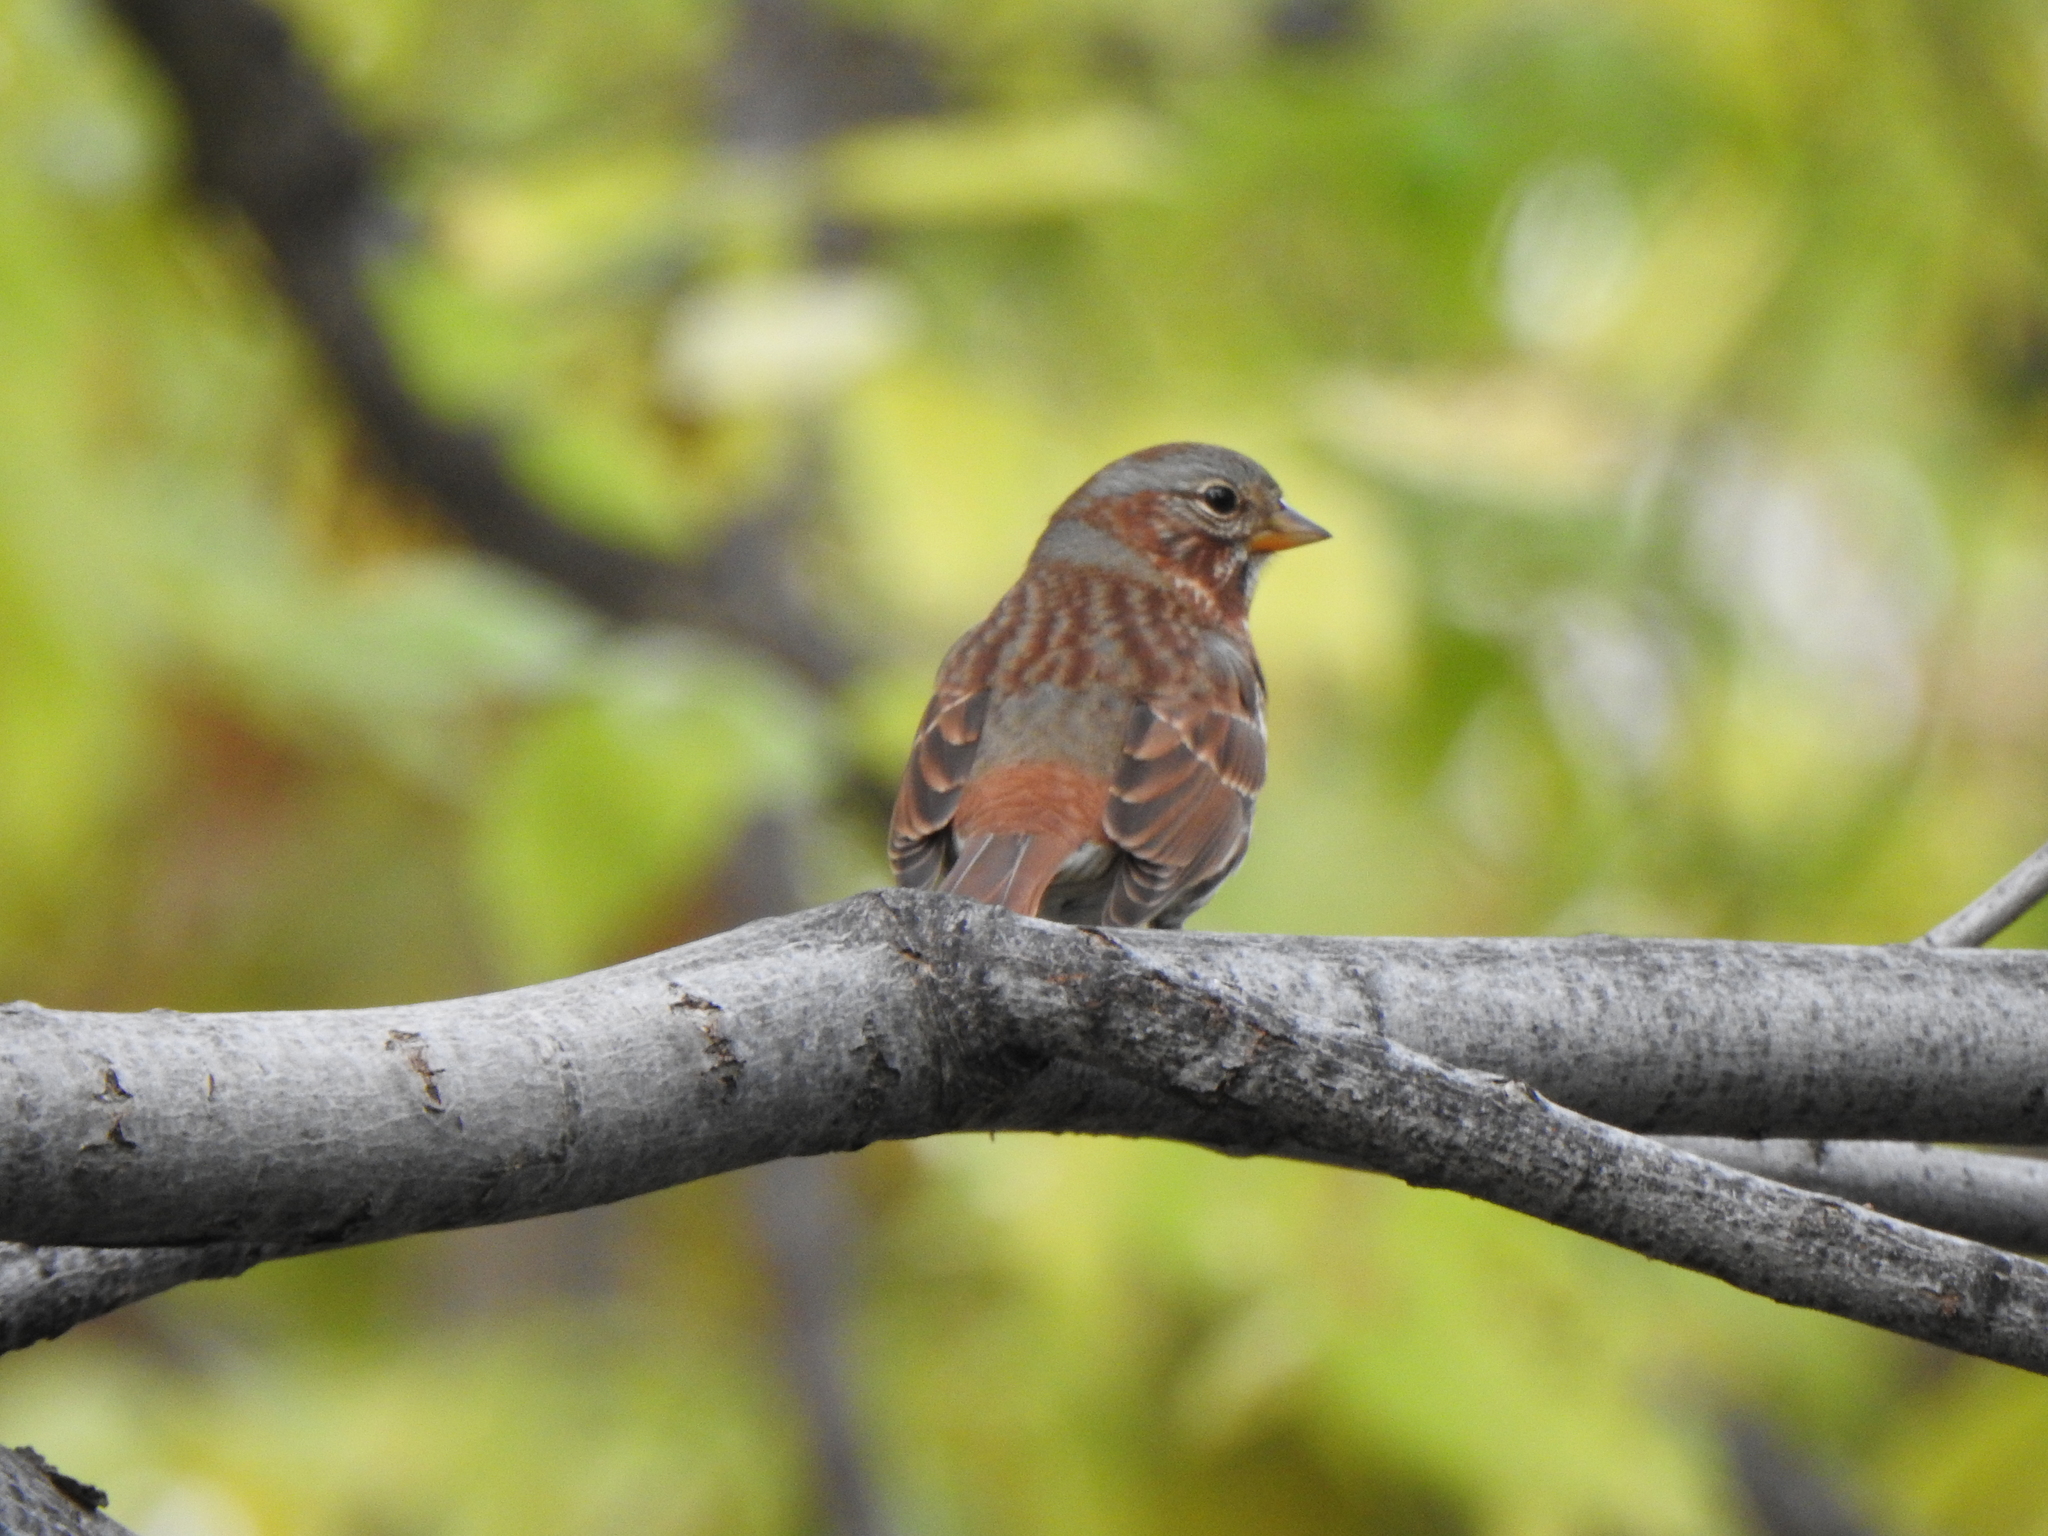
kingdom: Animalia
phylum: Chordata
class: Aves
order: Passeriformes
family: Passerellidae
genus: Passerella
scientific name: Passerella iliaca
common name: Fox sparrow
